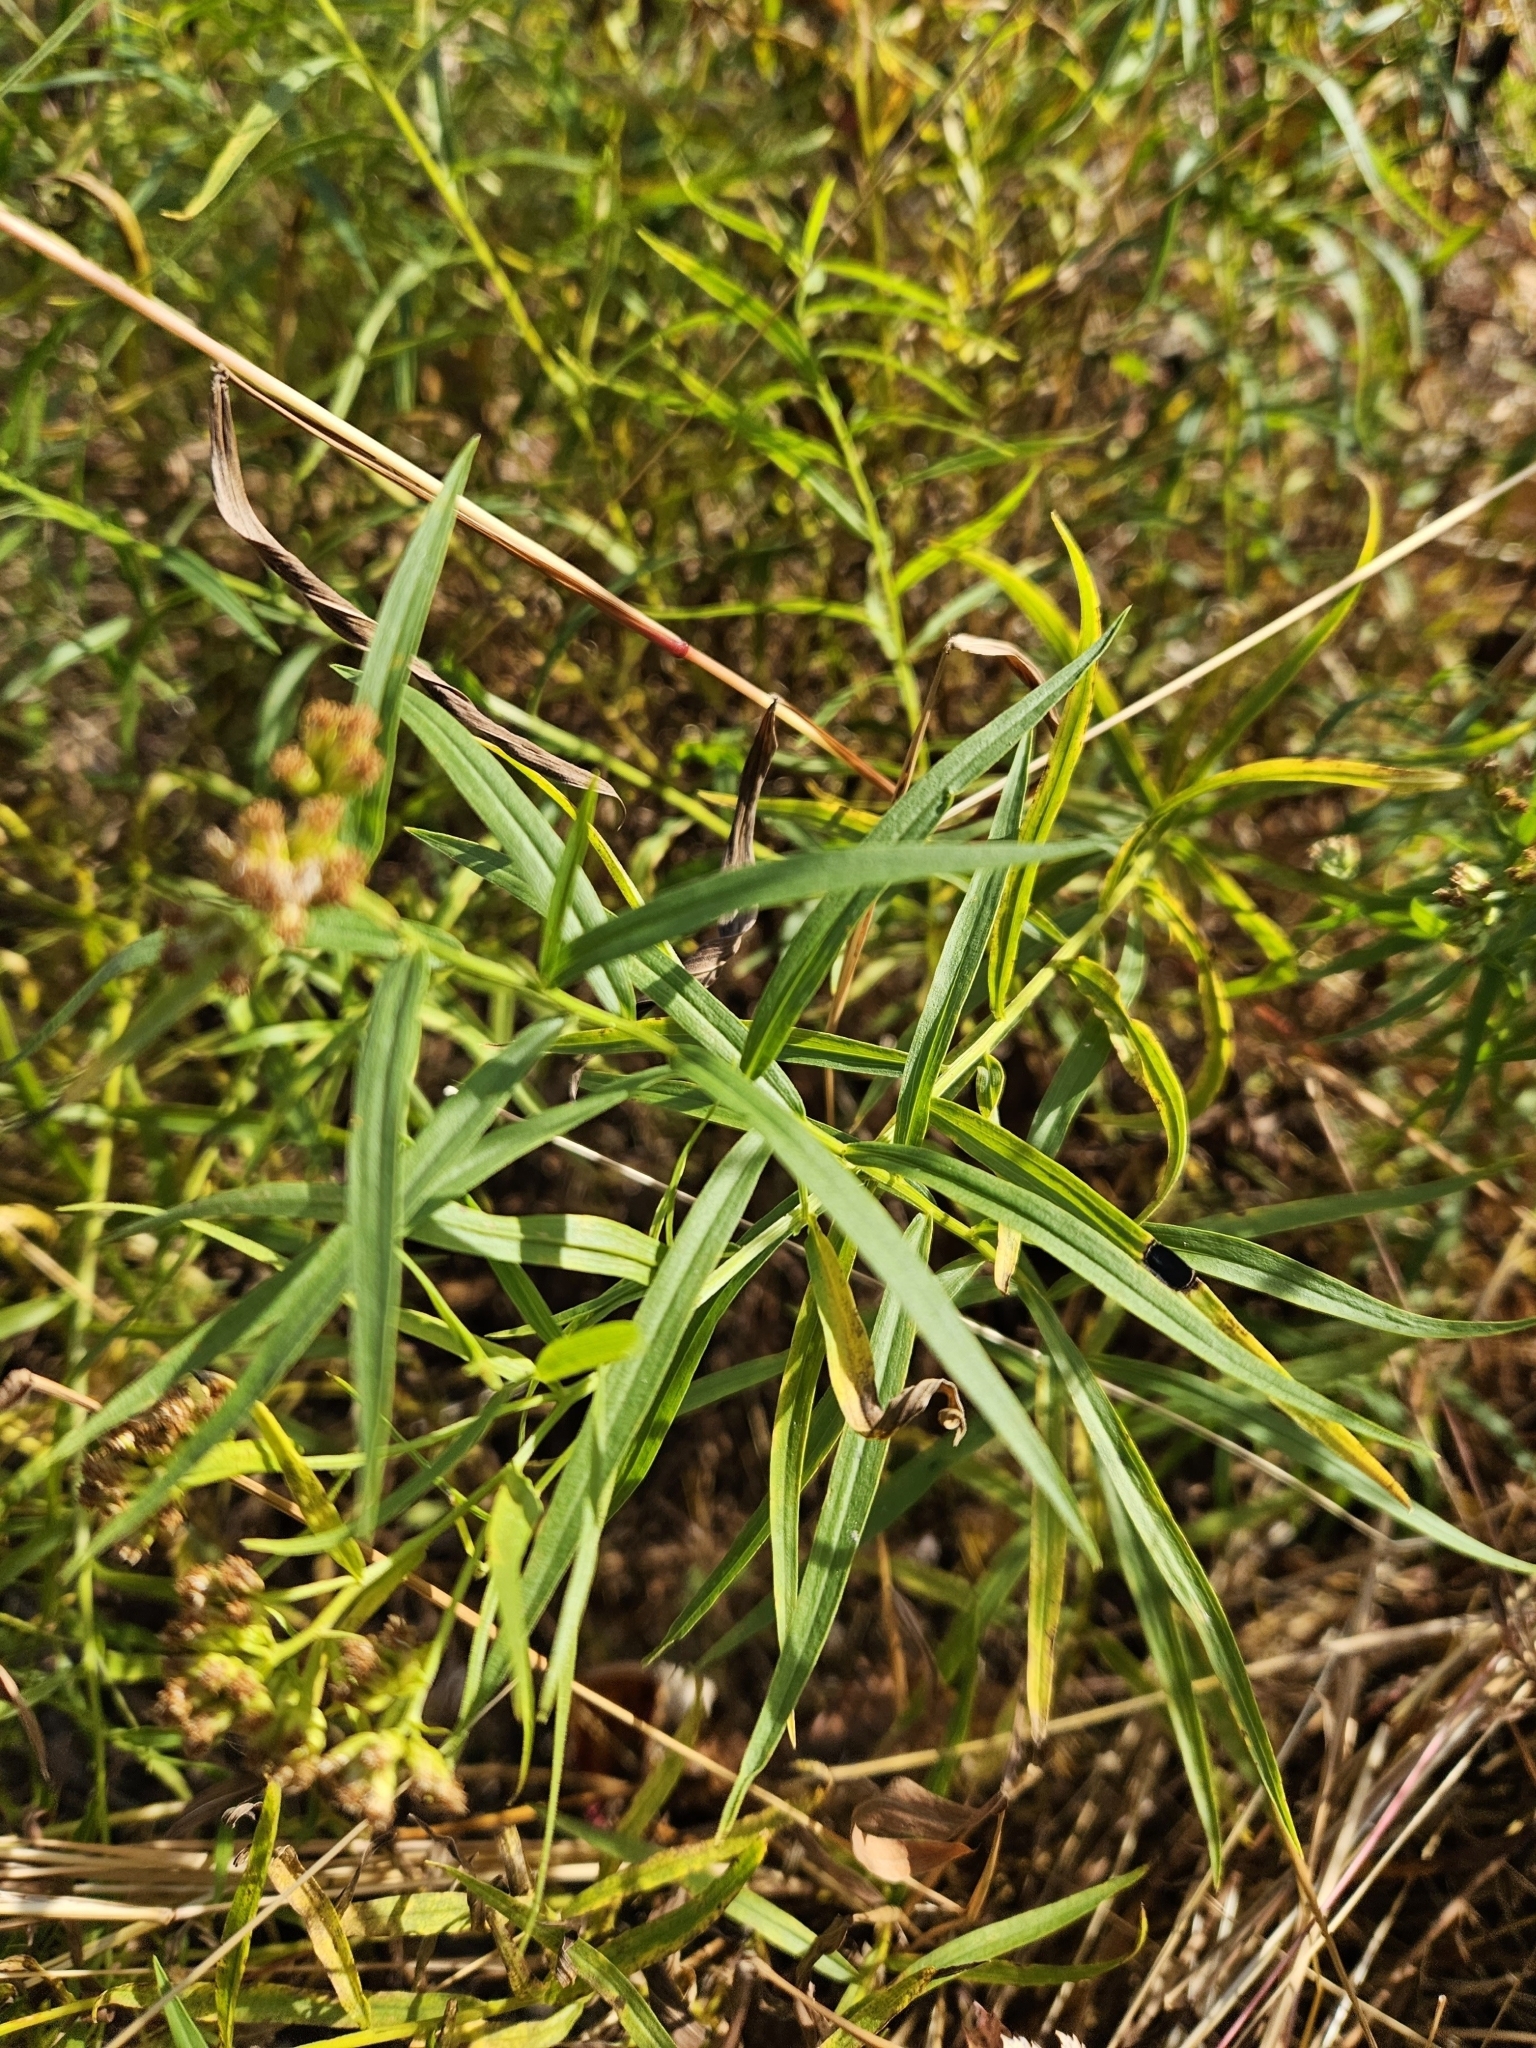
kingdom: Plantae
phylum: Tracheophyta
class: Magnoliopsida
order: Asterales
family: Asteraceae
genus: Euthamia
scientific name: Euthamia graminifolia
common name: Common goldentop
